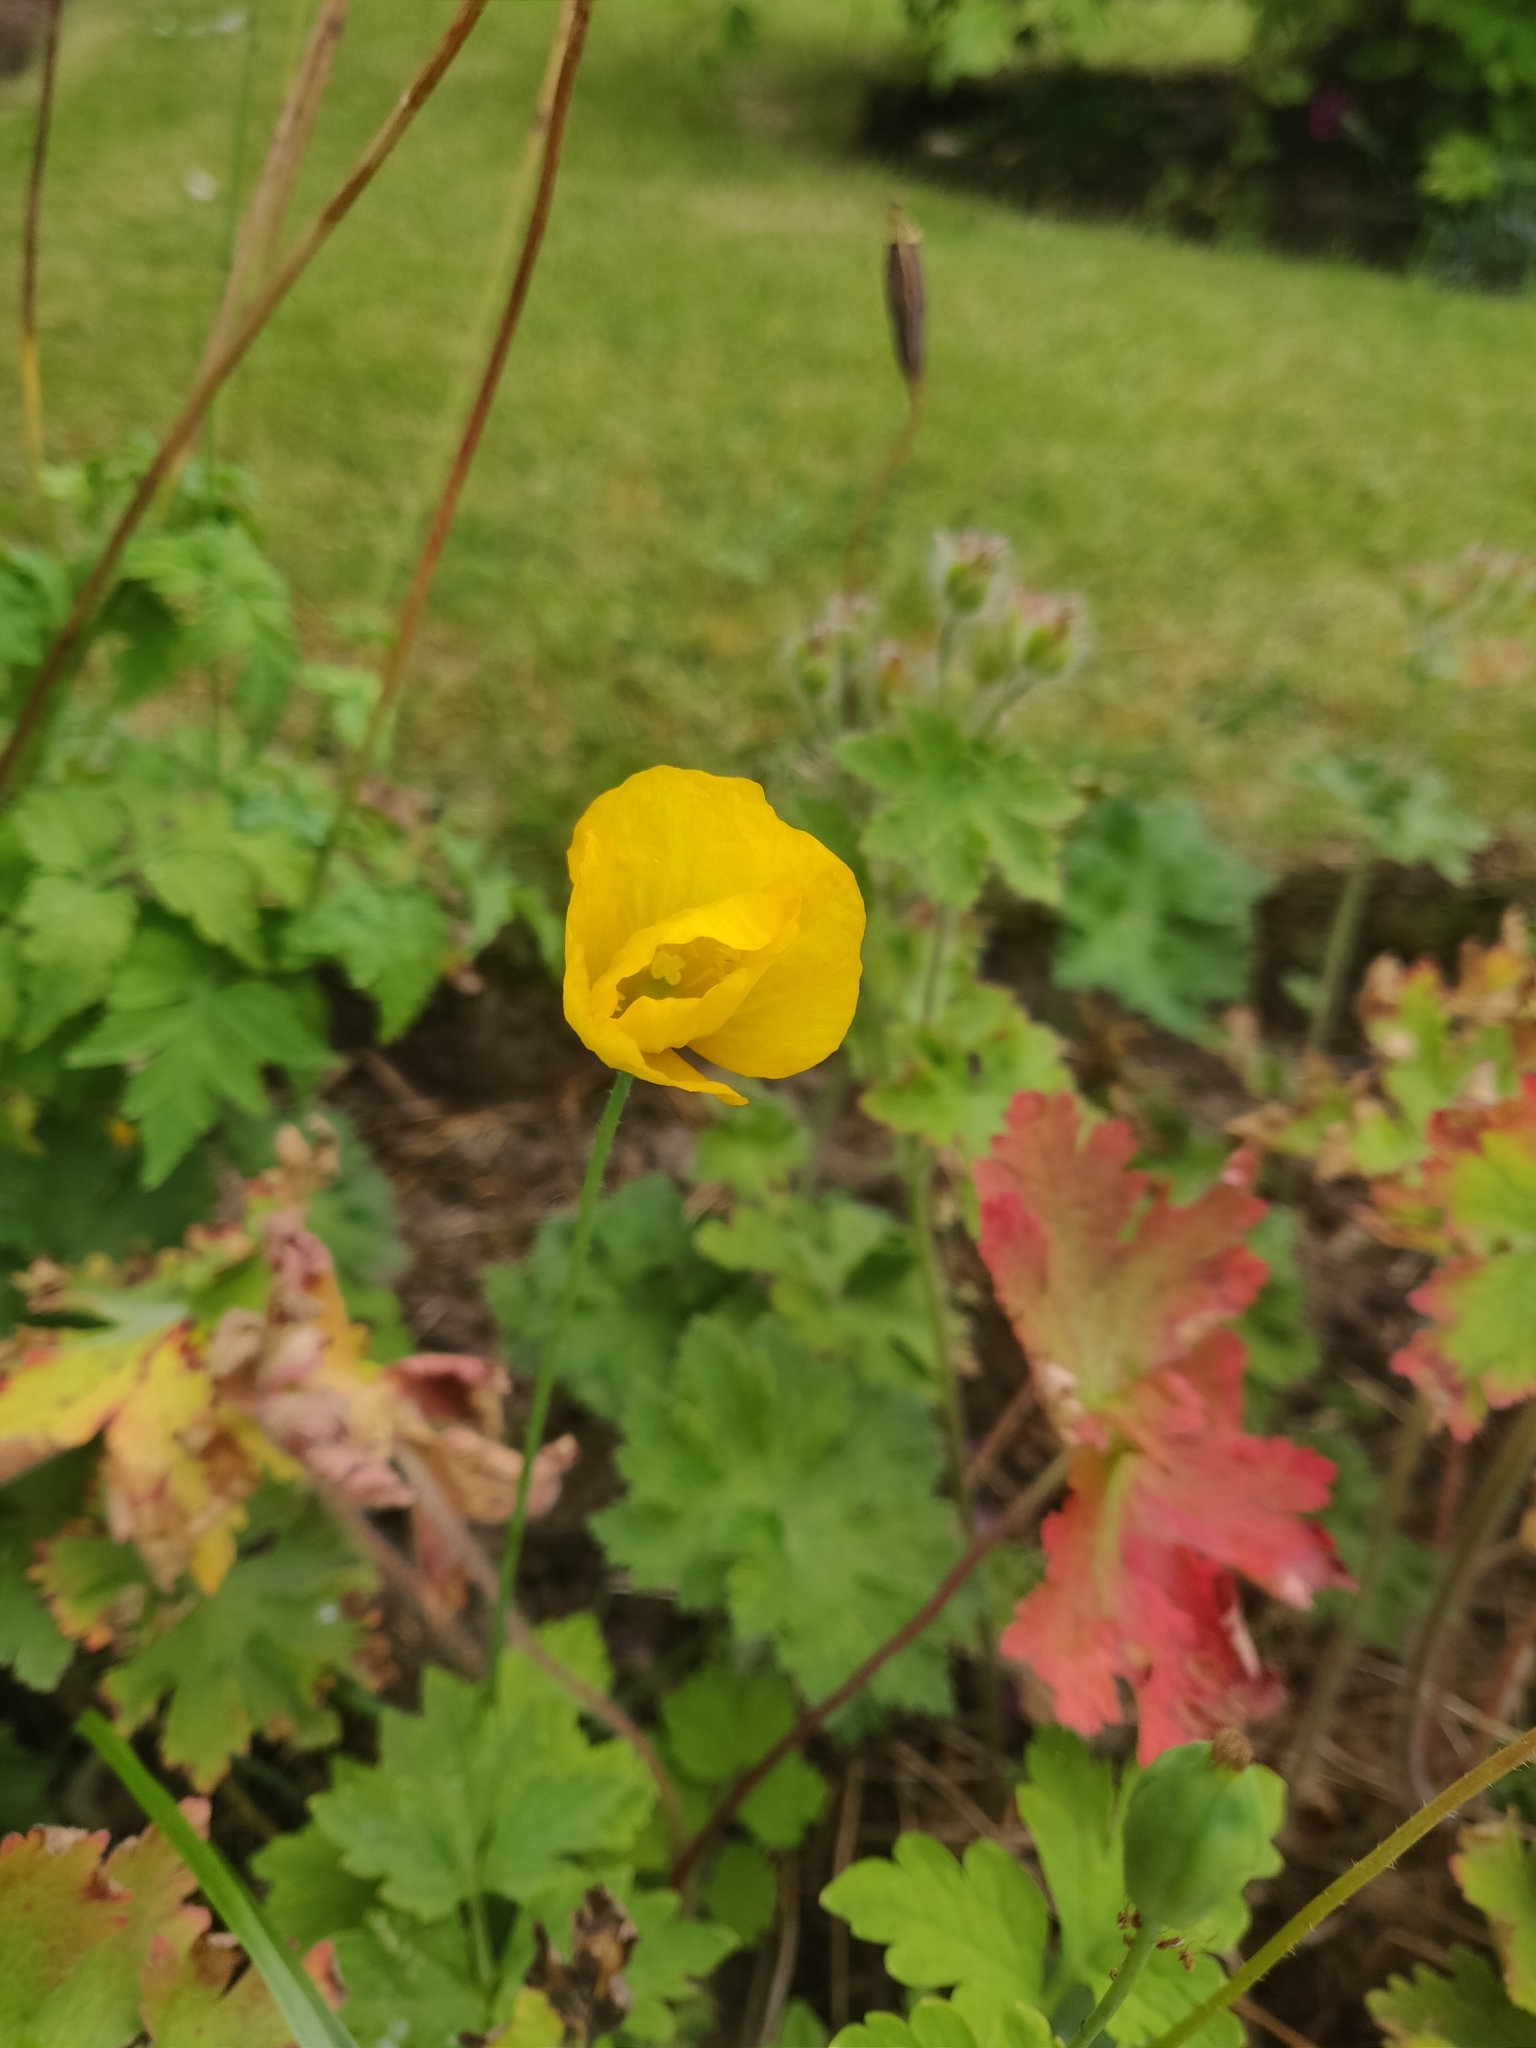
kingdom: Plantae
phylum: Tracheophyta
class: Magnoliopsida
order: Ranunculales
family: Papaveraceae
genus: Papaver
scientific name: Papaver cambricum
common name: Poppy
